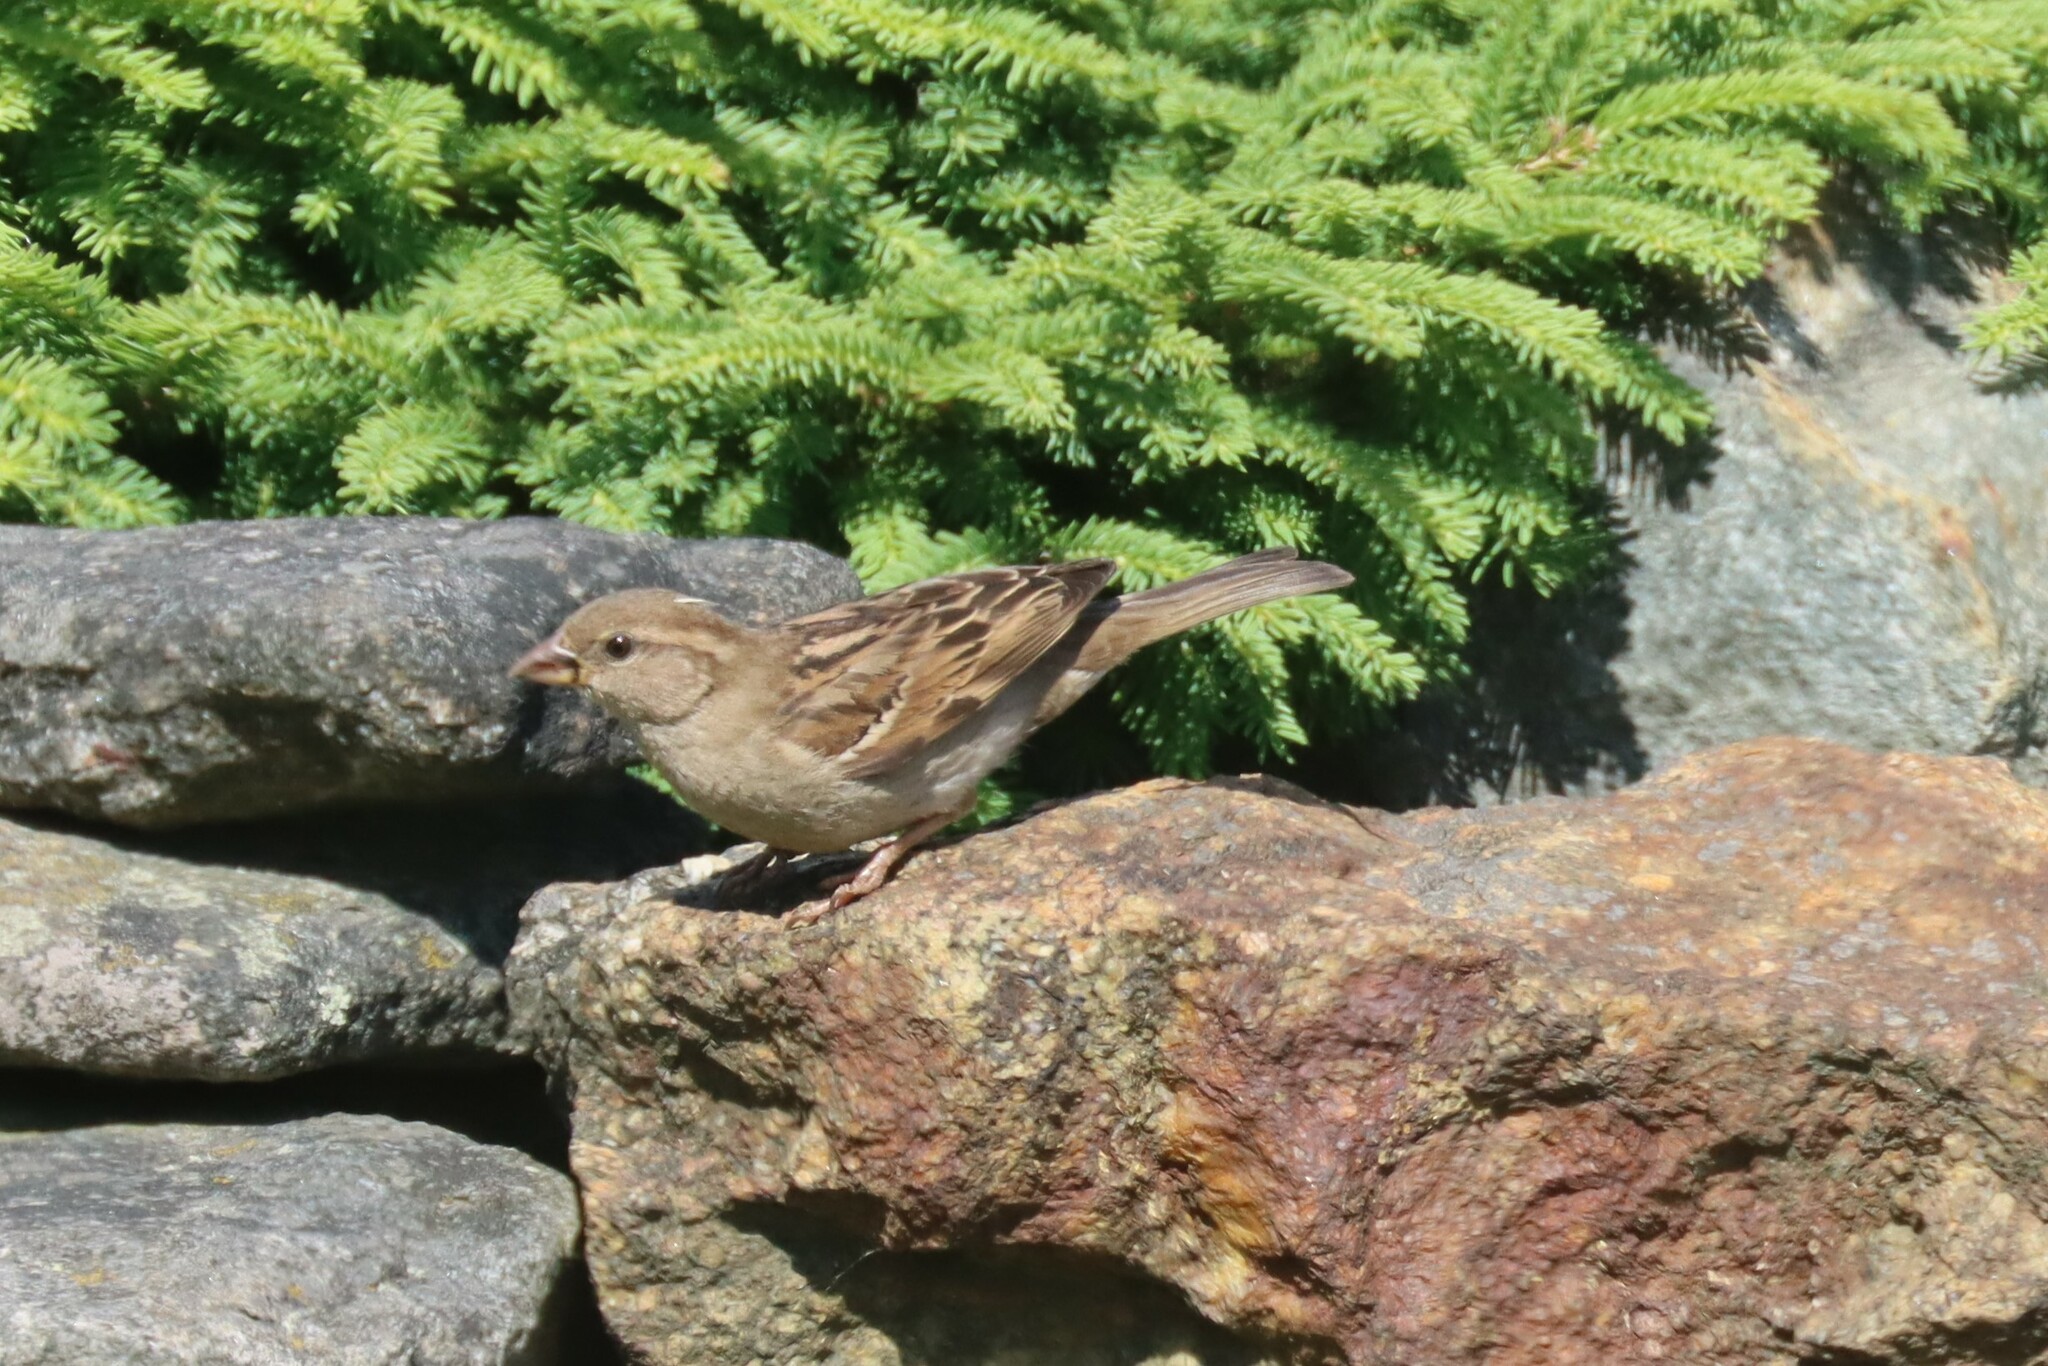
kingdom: Animalia
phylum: Chordata
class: Aves
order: Passeriformes
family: Passeridae
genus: Passer
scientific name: Passer domesticus
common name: House sparrow
